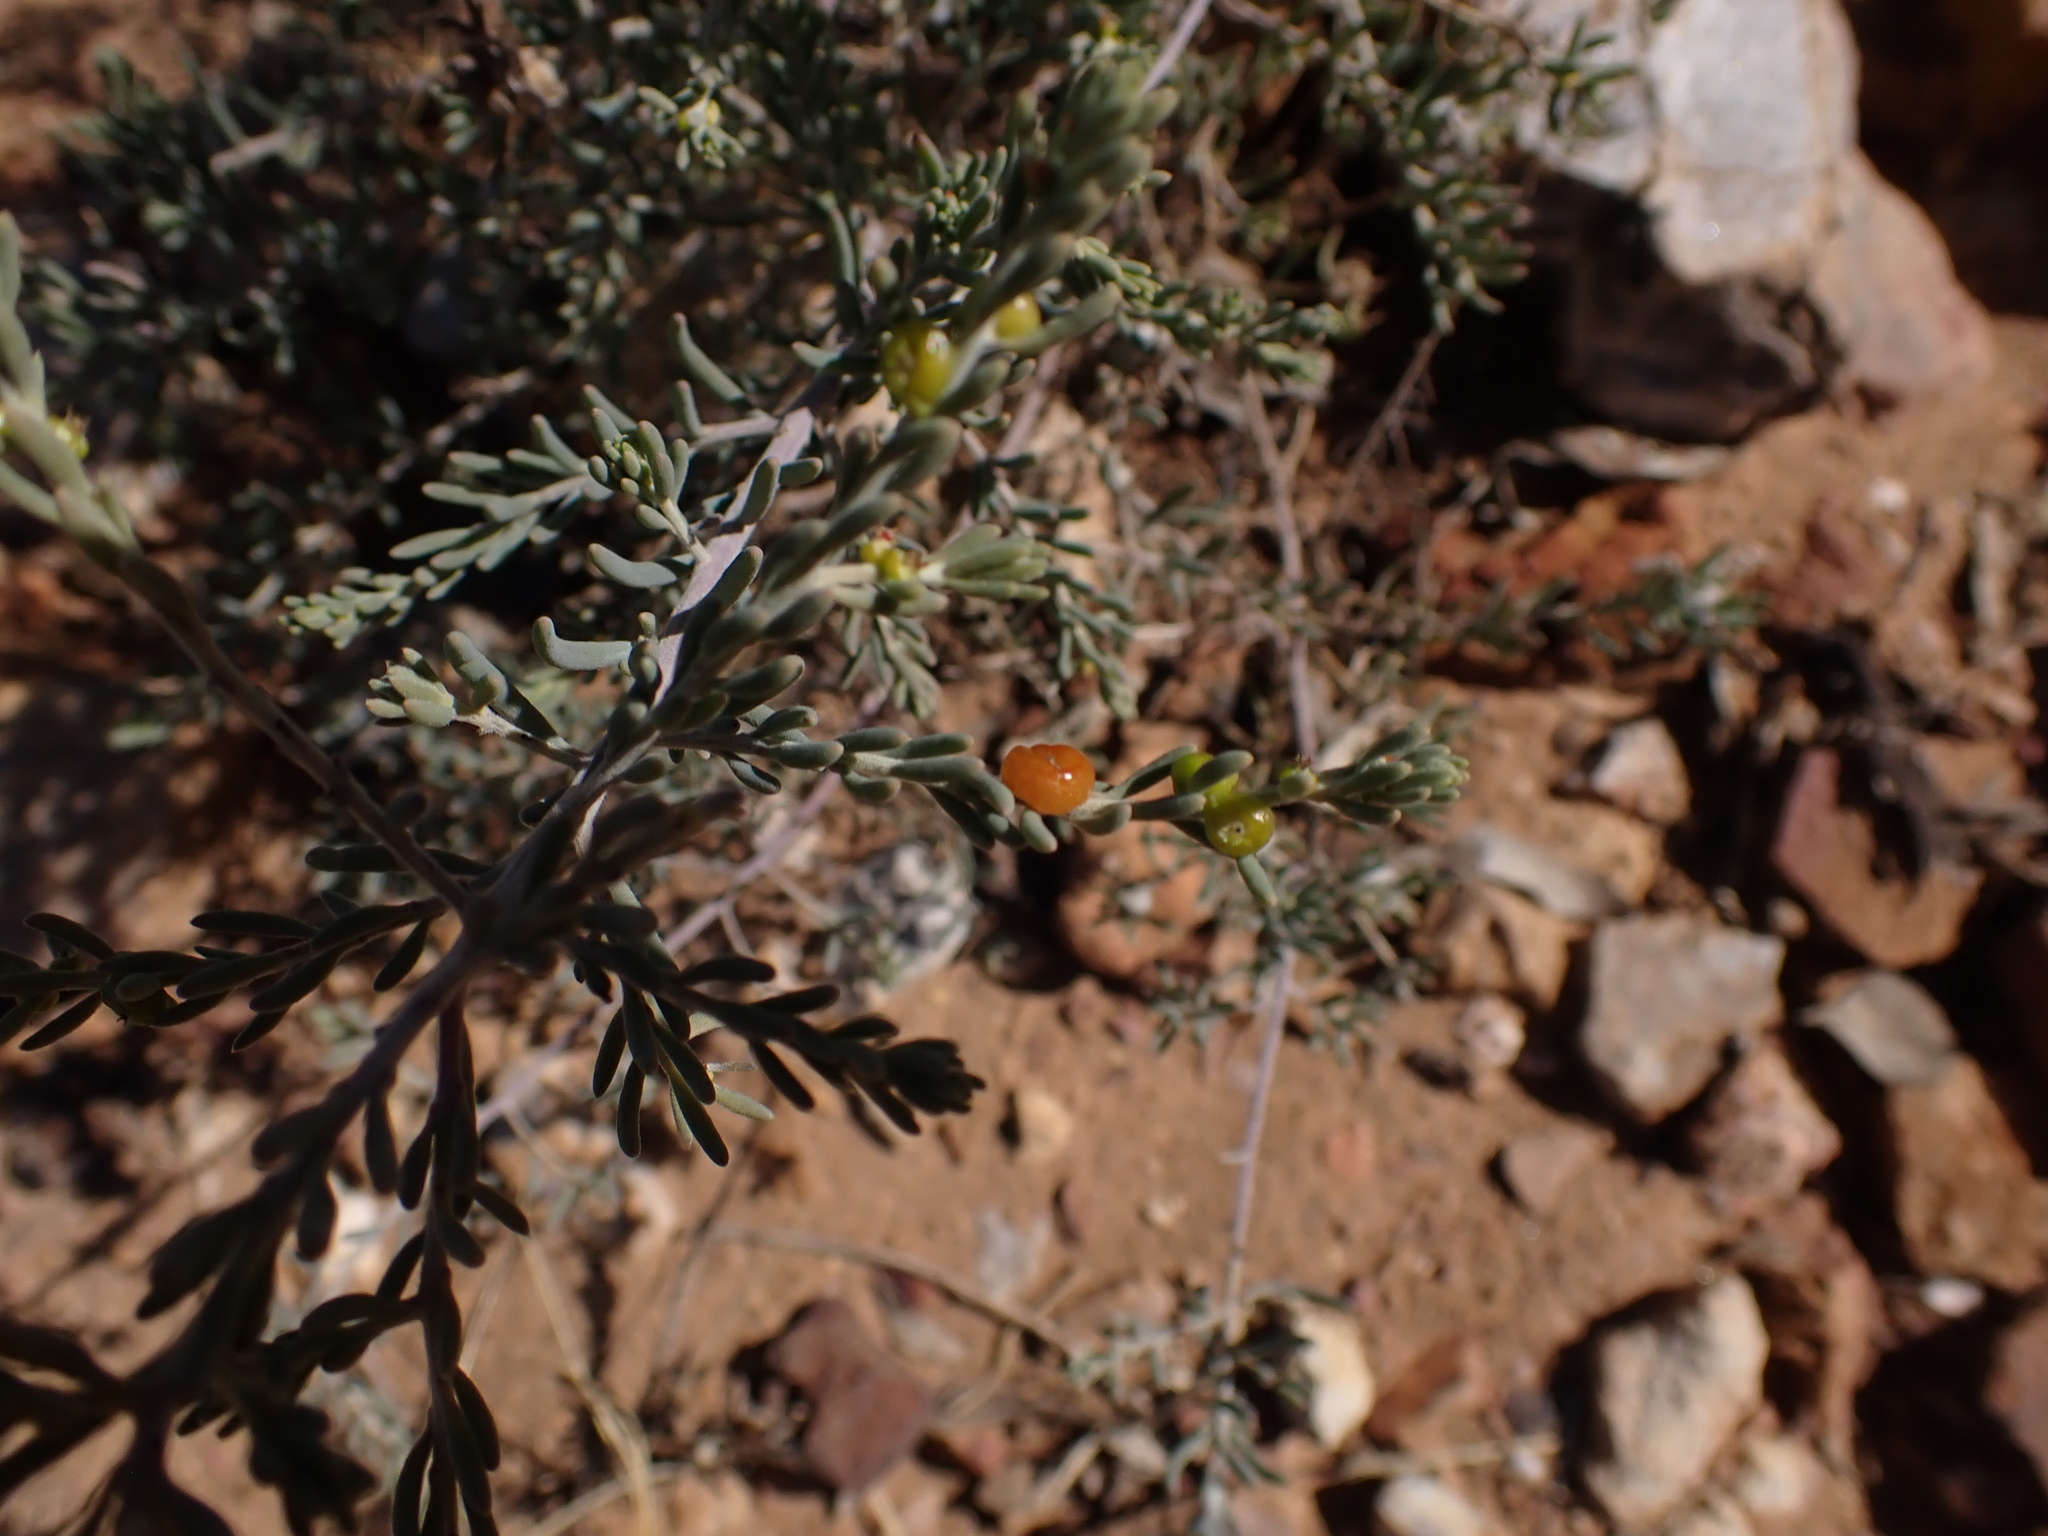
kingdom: Plantae
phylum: Tracheophyta
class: Magnoliopsida
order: Caryophyllales
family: Amaranthaceae
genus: Enchylaena
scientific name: Enchylaena tomentosa
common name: Ruby saltbush
